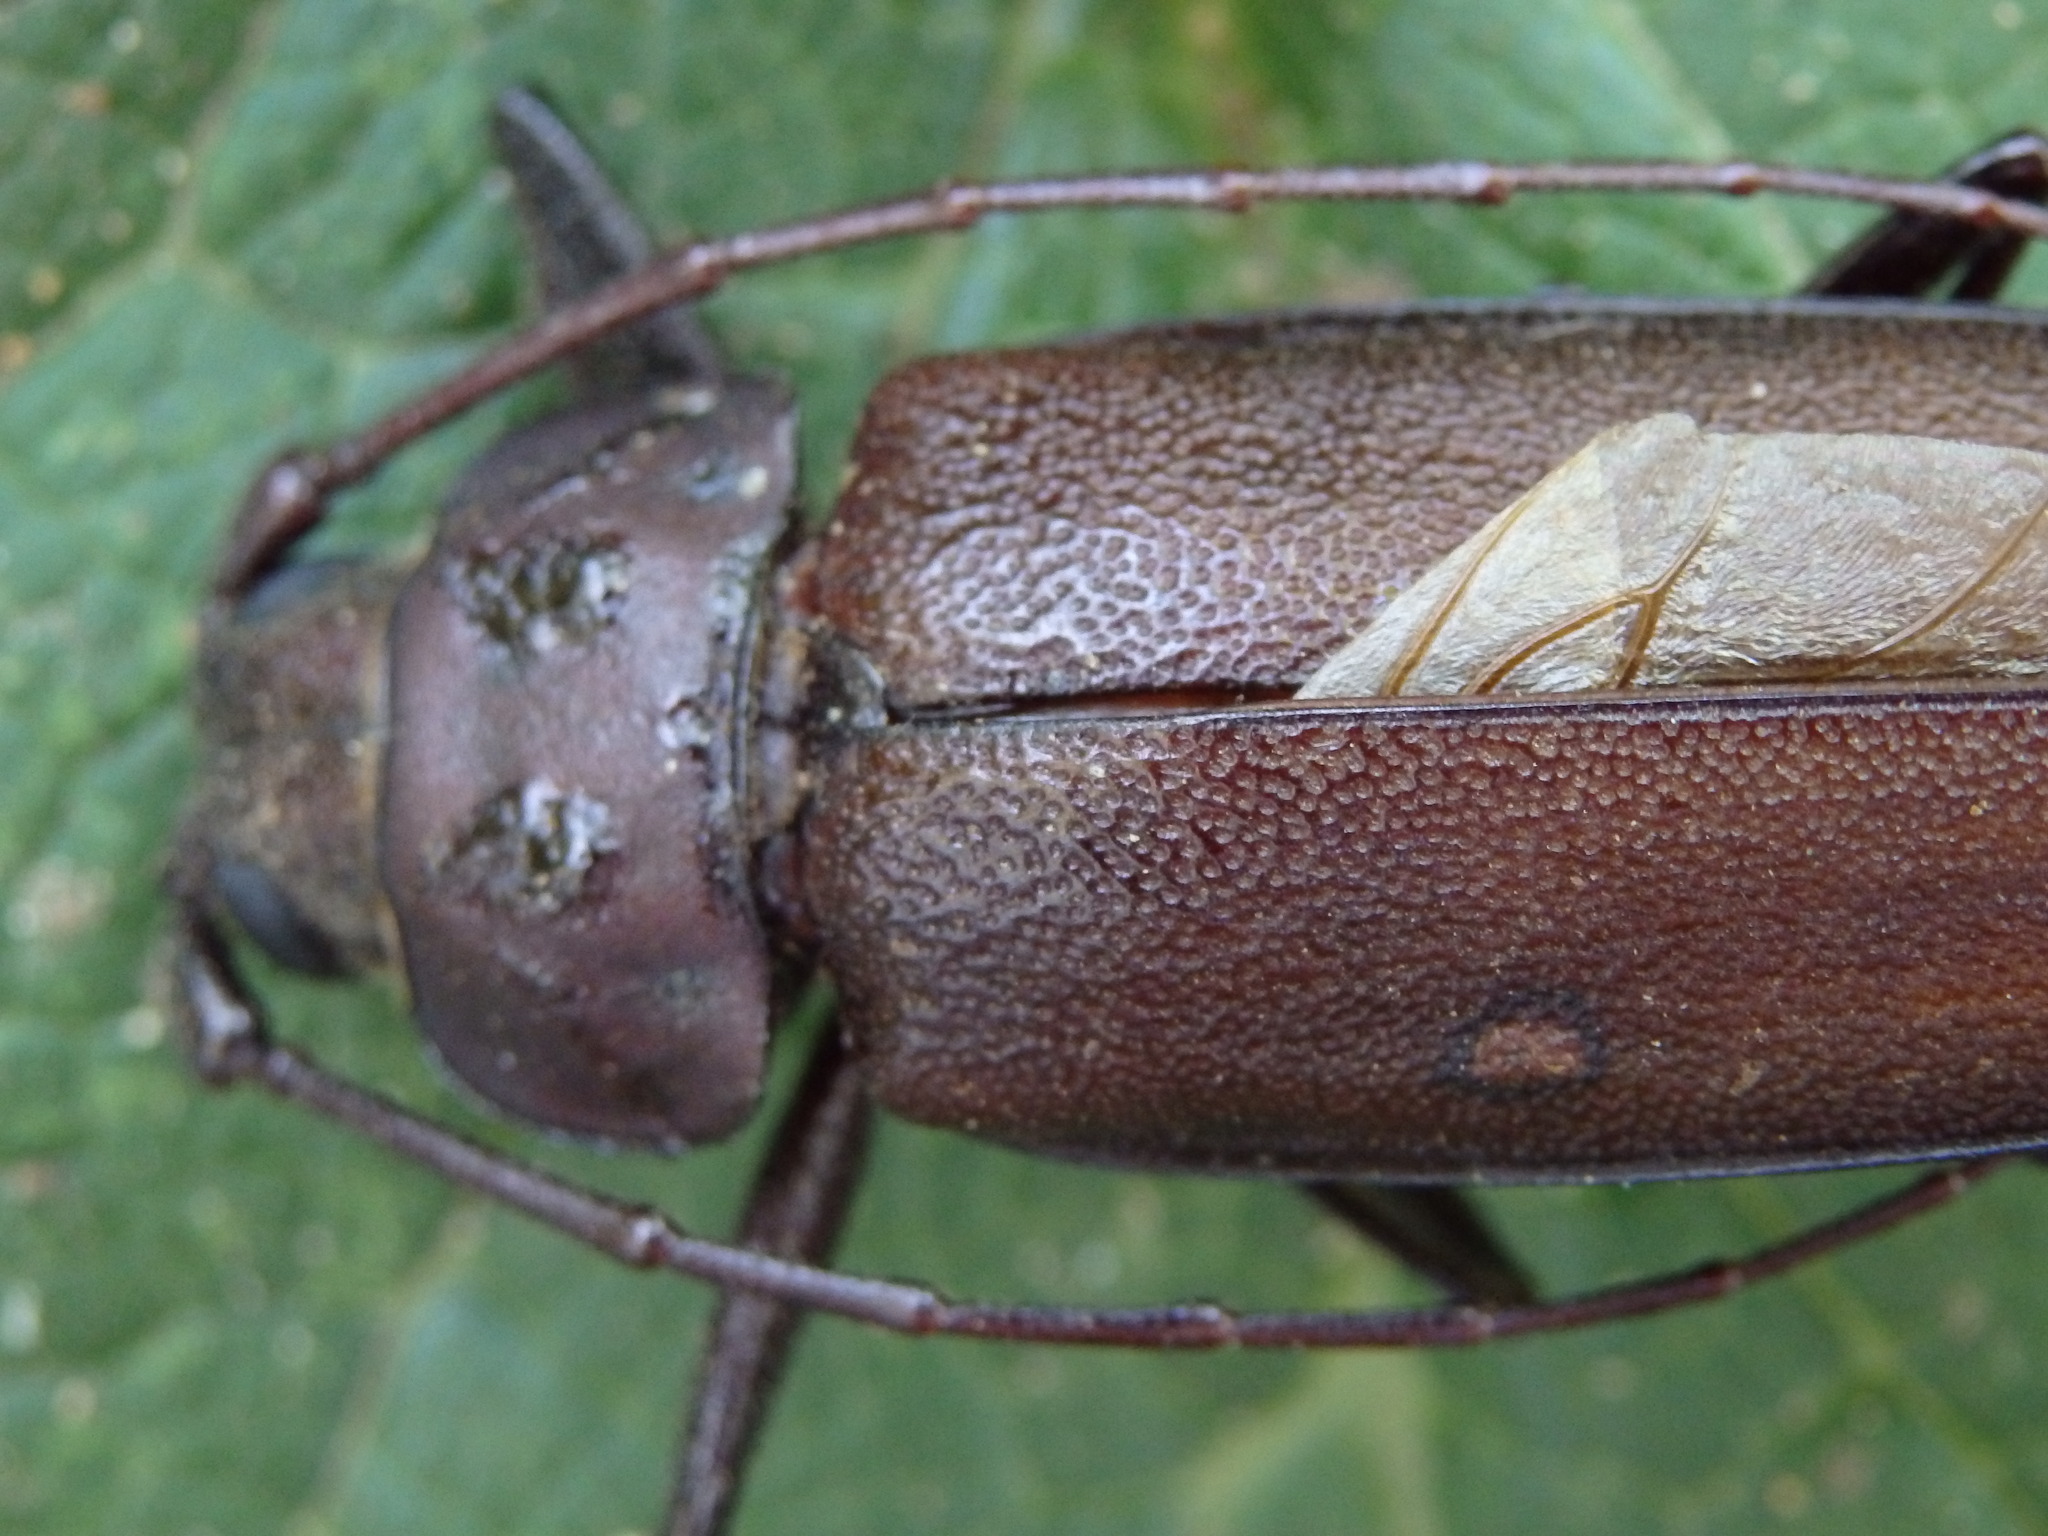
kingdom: Animalia
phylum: Arthropoda
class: Insecta
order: Coleoptera
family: Cerambycidae
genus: Ergates
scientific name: Ergates faber
